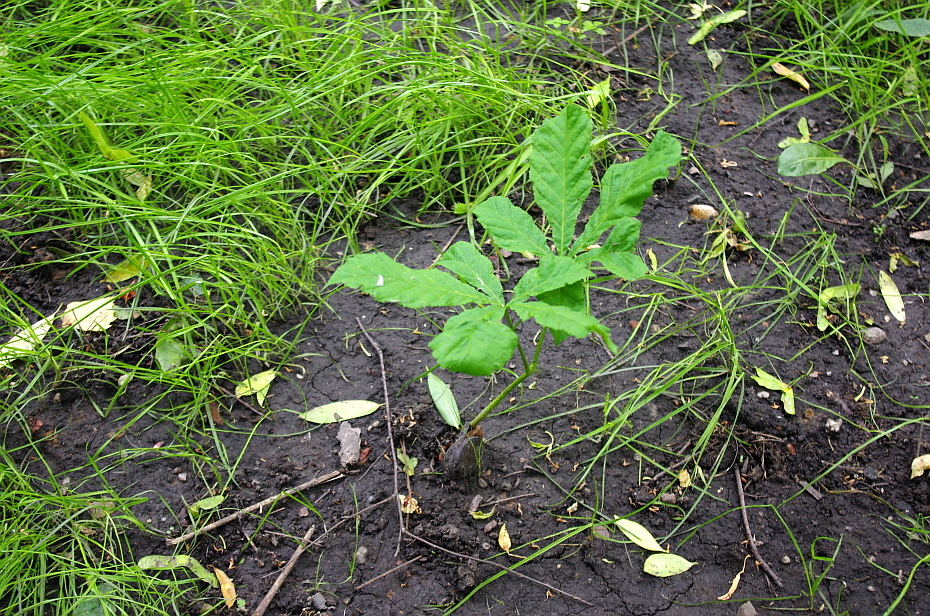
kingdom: Plantae
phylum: Tracheophyta
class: Magnoliopsida
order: Sapindales
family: Sapindaceae
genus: Aesculus
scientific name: Aesculus hippocastanum
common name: Horse-chestnut
